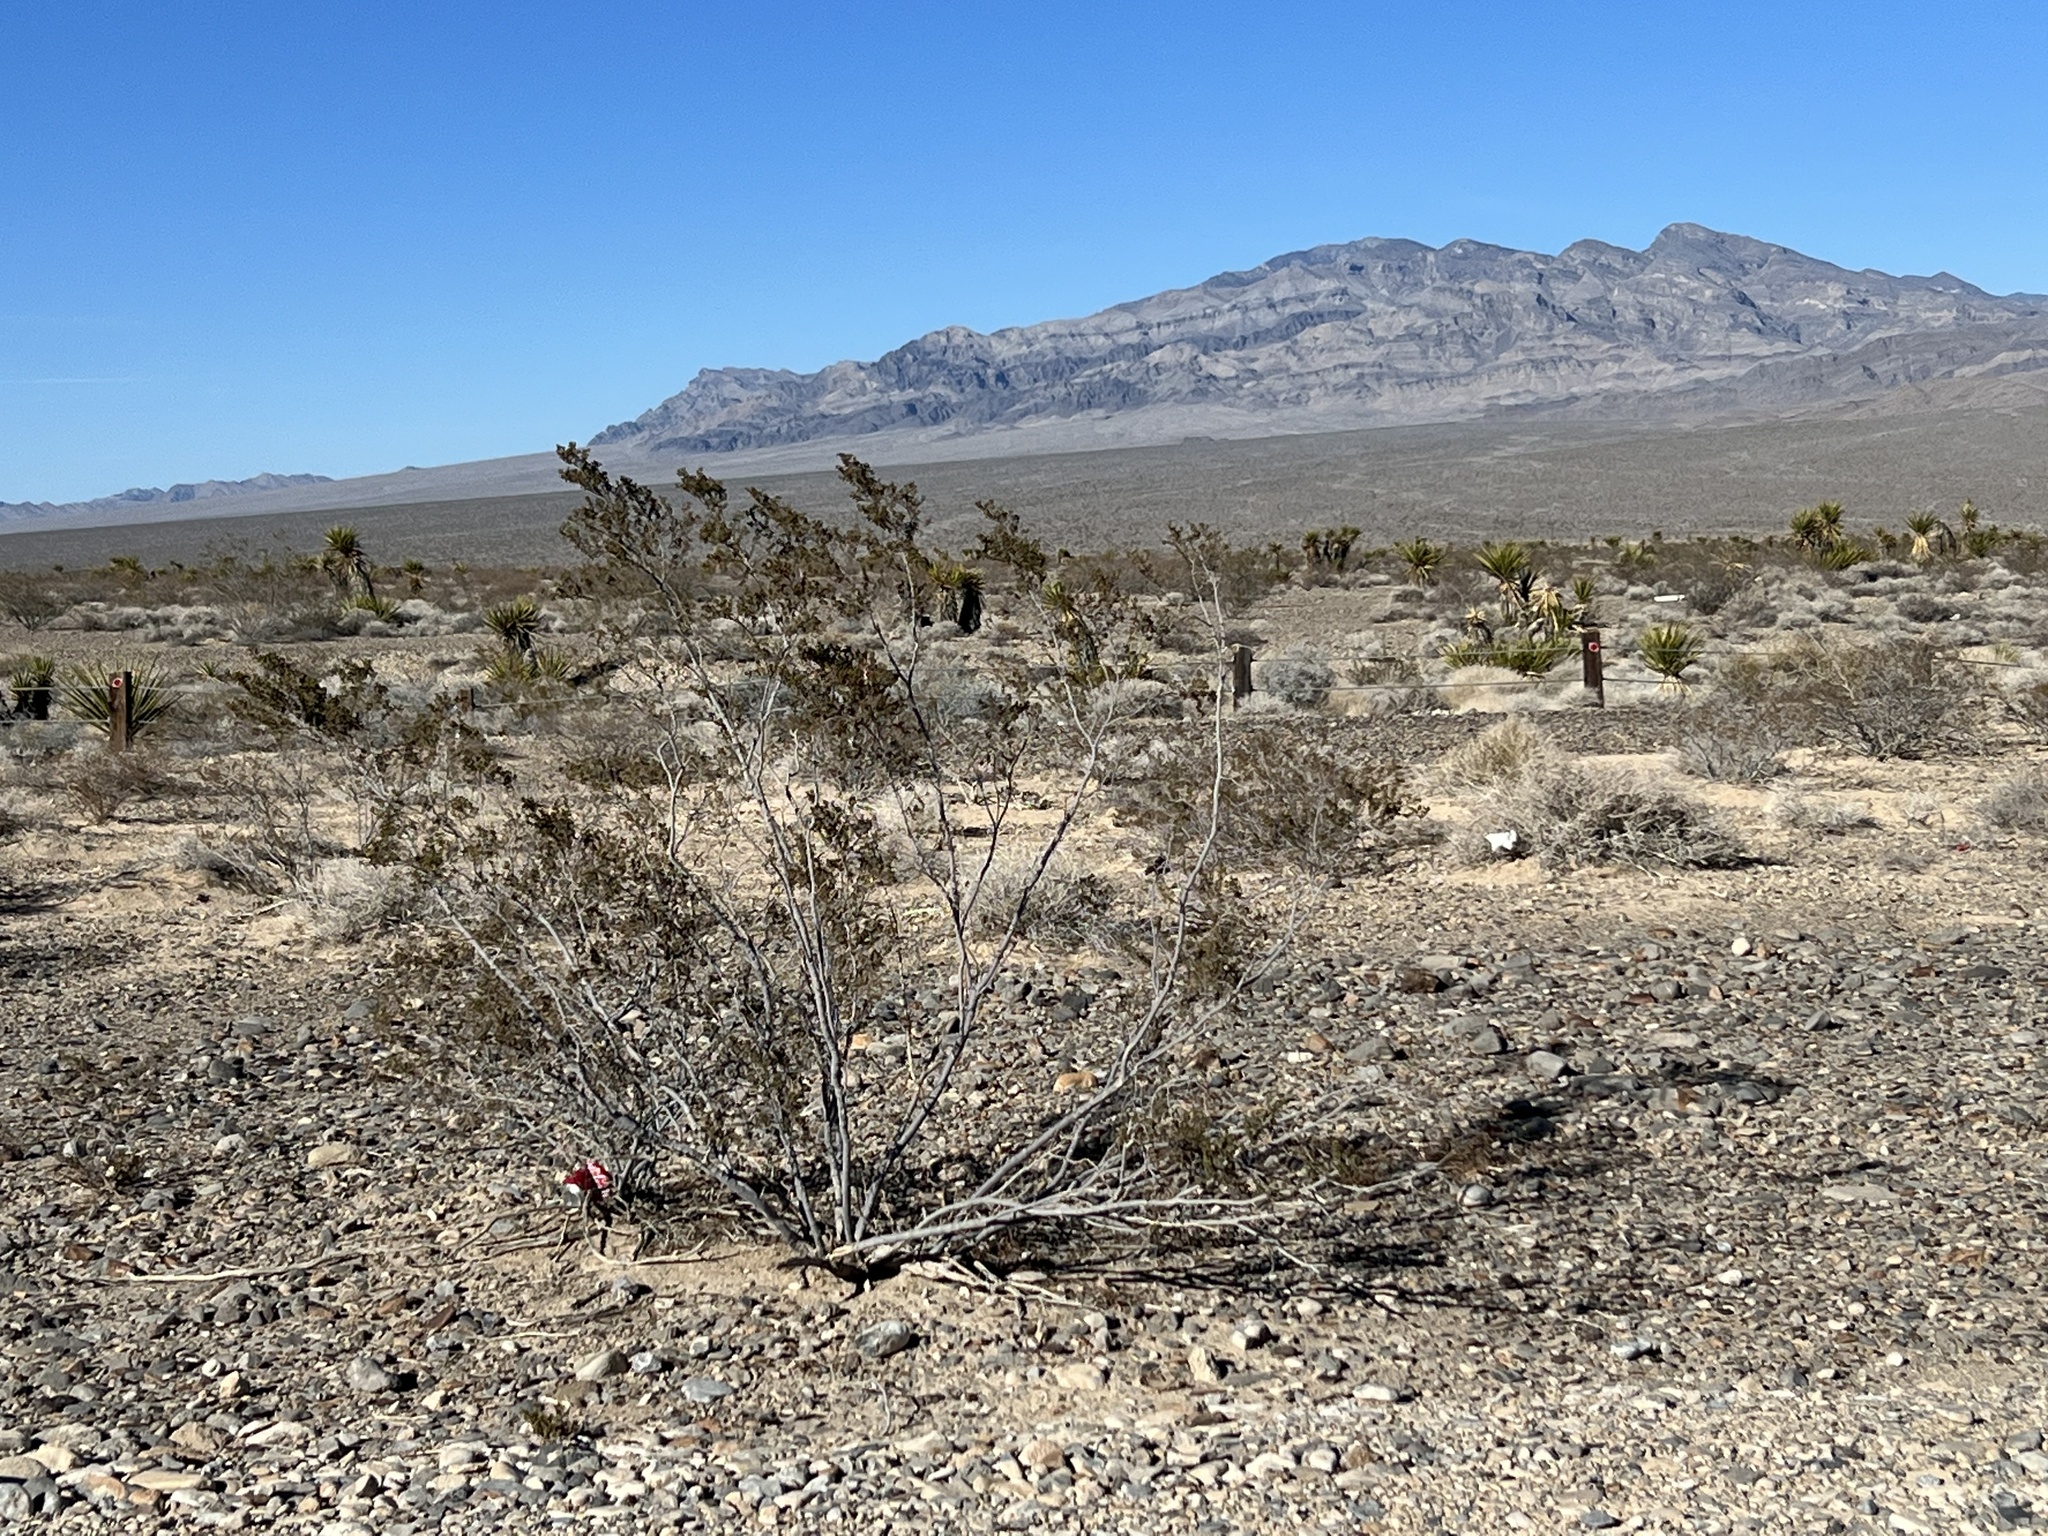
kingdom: Plantae
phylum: Tracheophyta
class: Magnoliopsida
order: Zygophyllales
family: Zygophyllaceae
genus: Larrea
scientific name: Larrea tridentata
